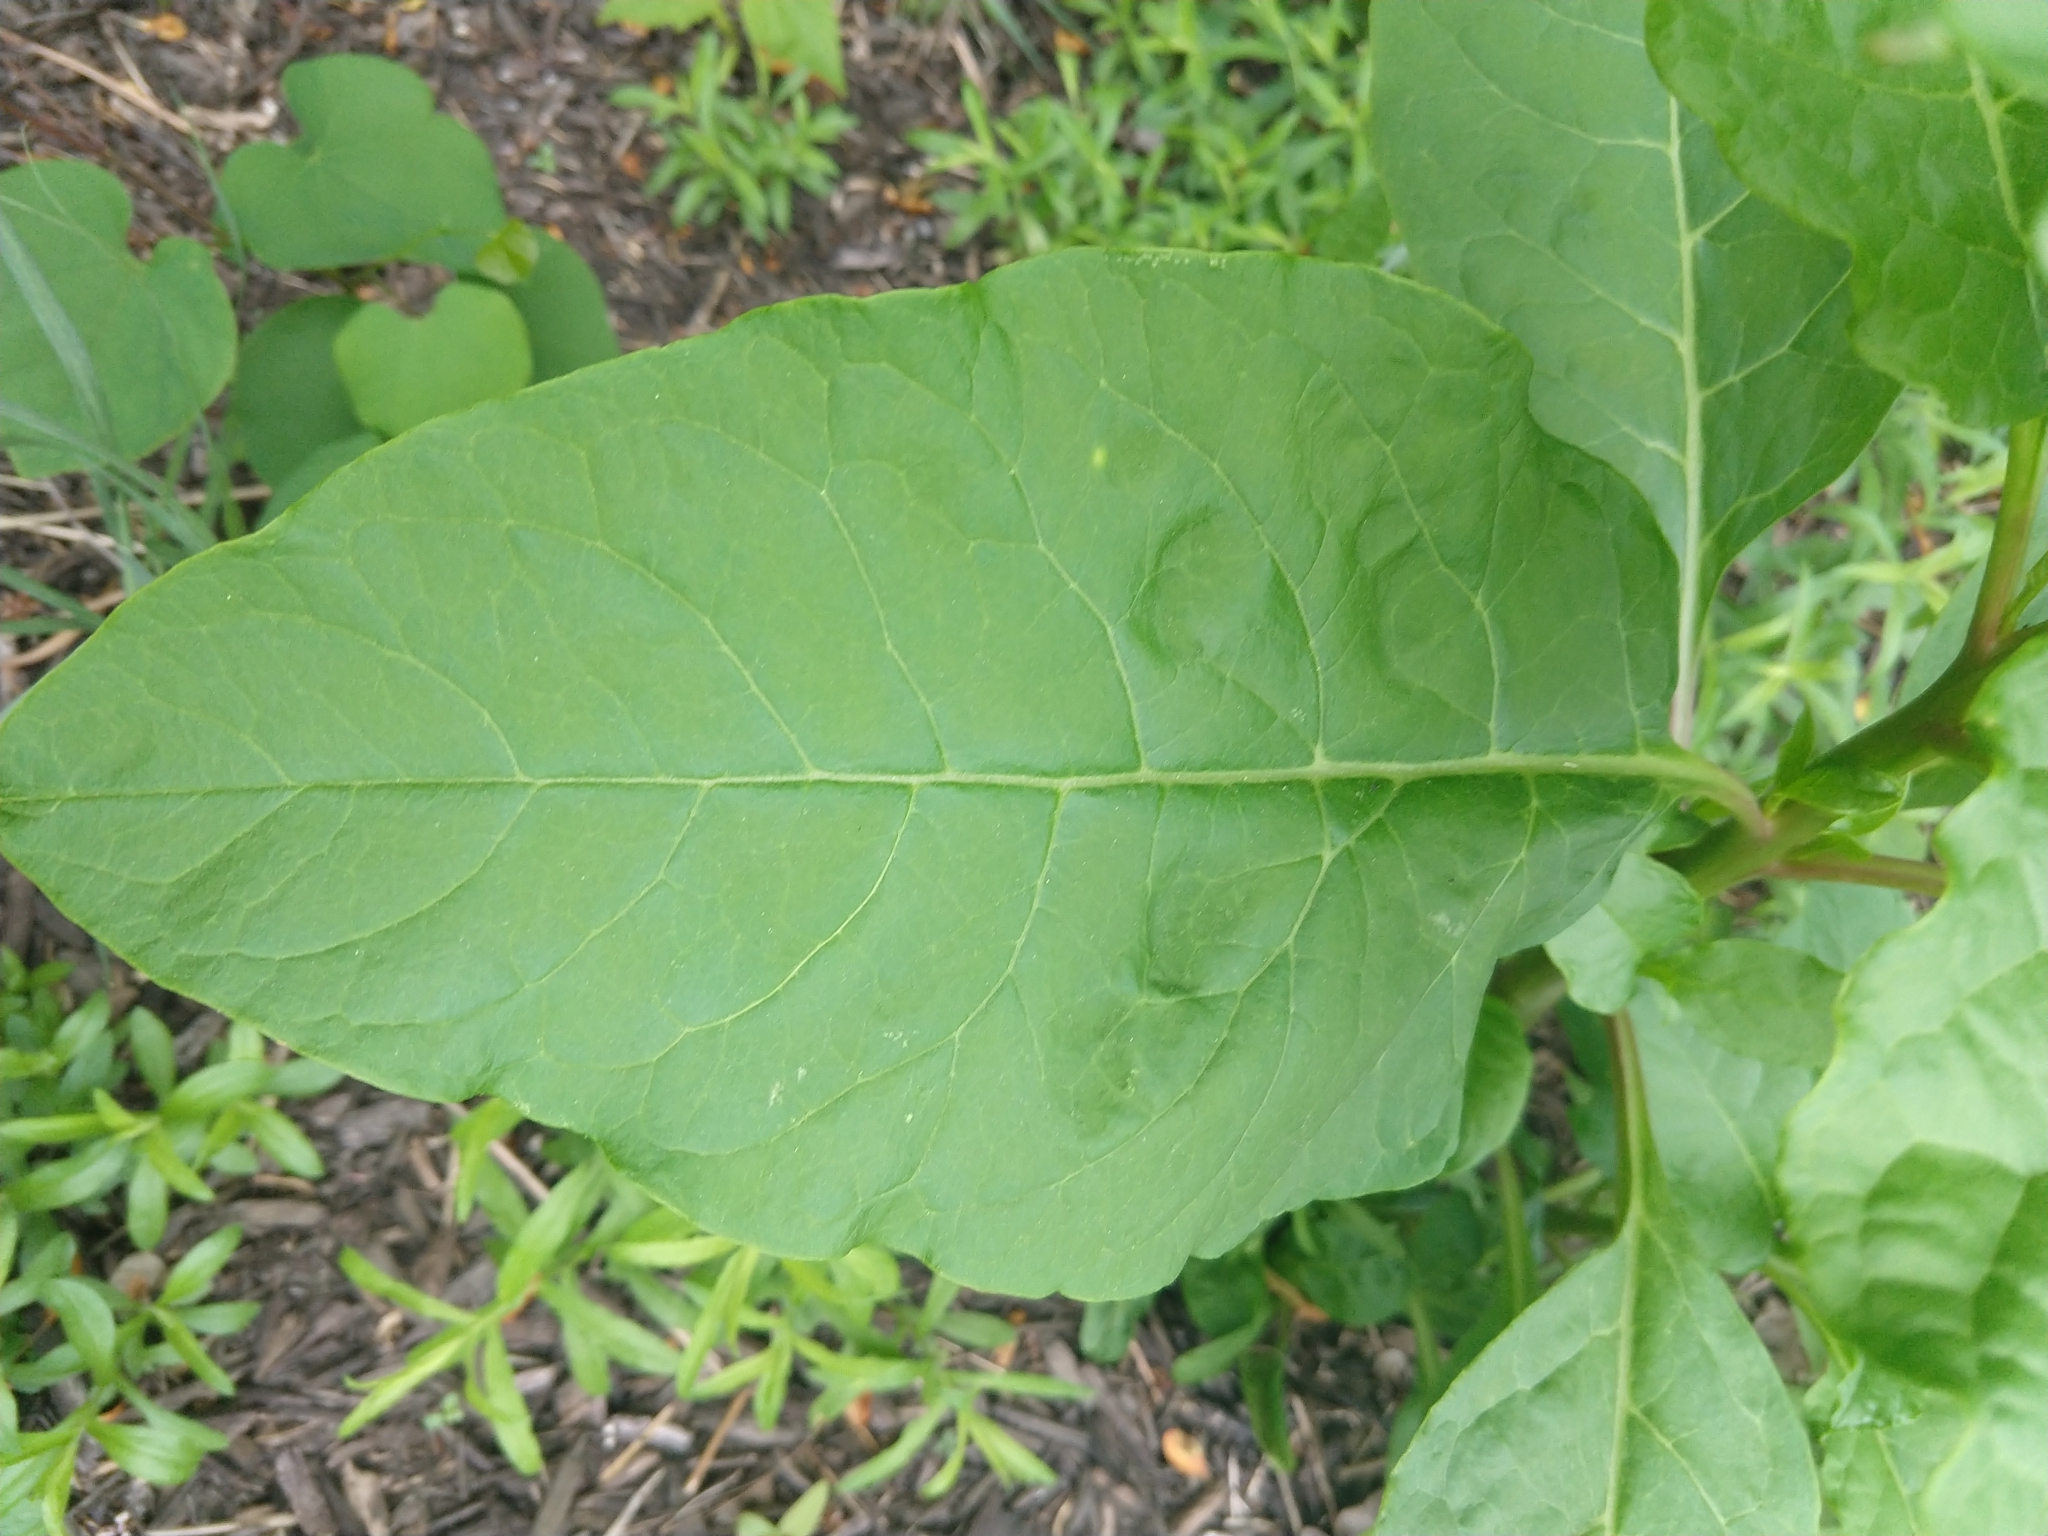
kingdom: Plantae
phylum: Tracheophyta
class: Magnoliopsida
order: Caryophyllales
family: Phytolaccaceae
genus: Phytolacca
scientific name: Phytolacca americana
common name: American pokeweed
